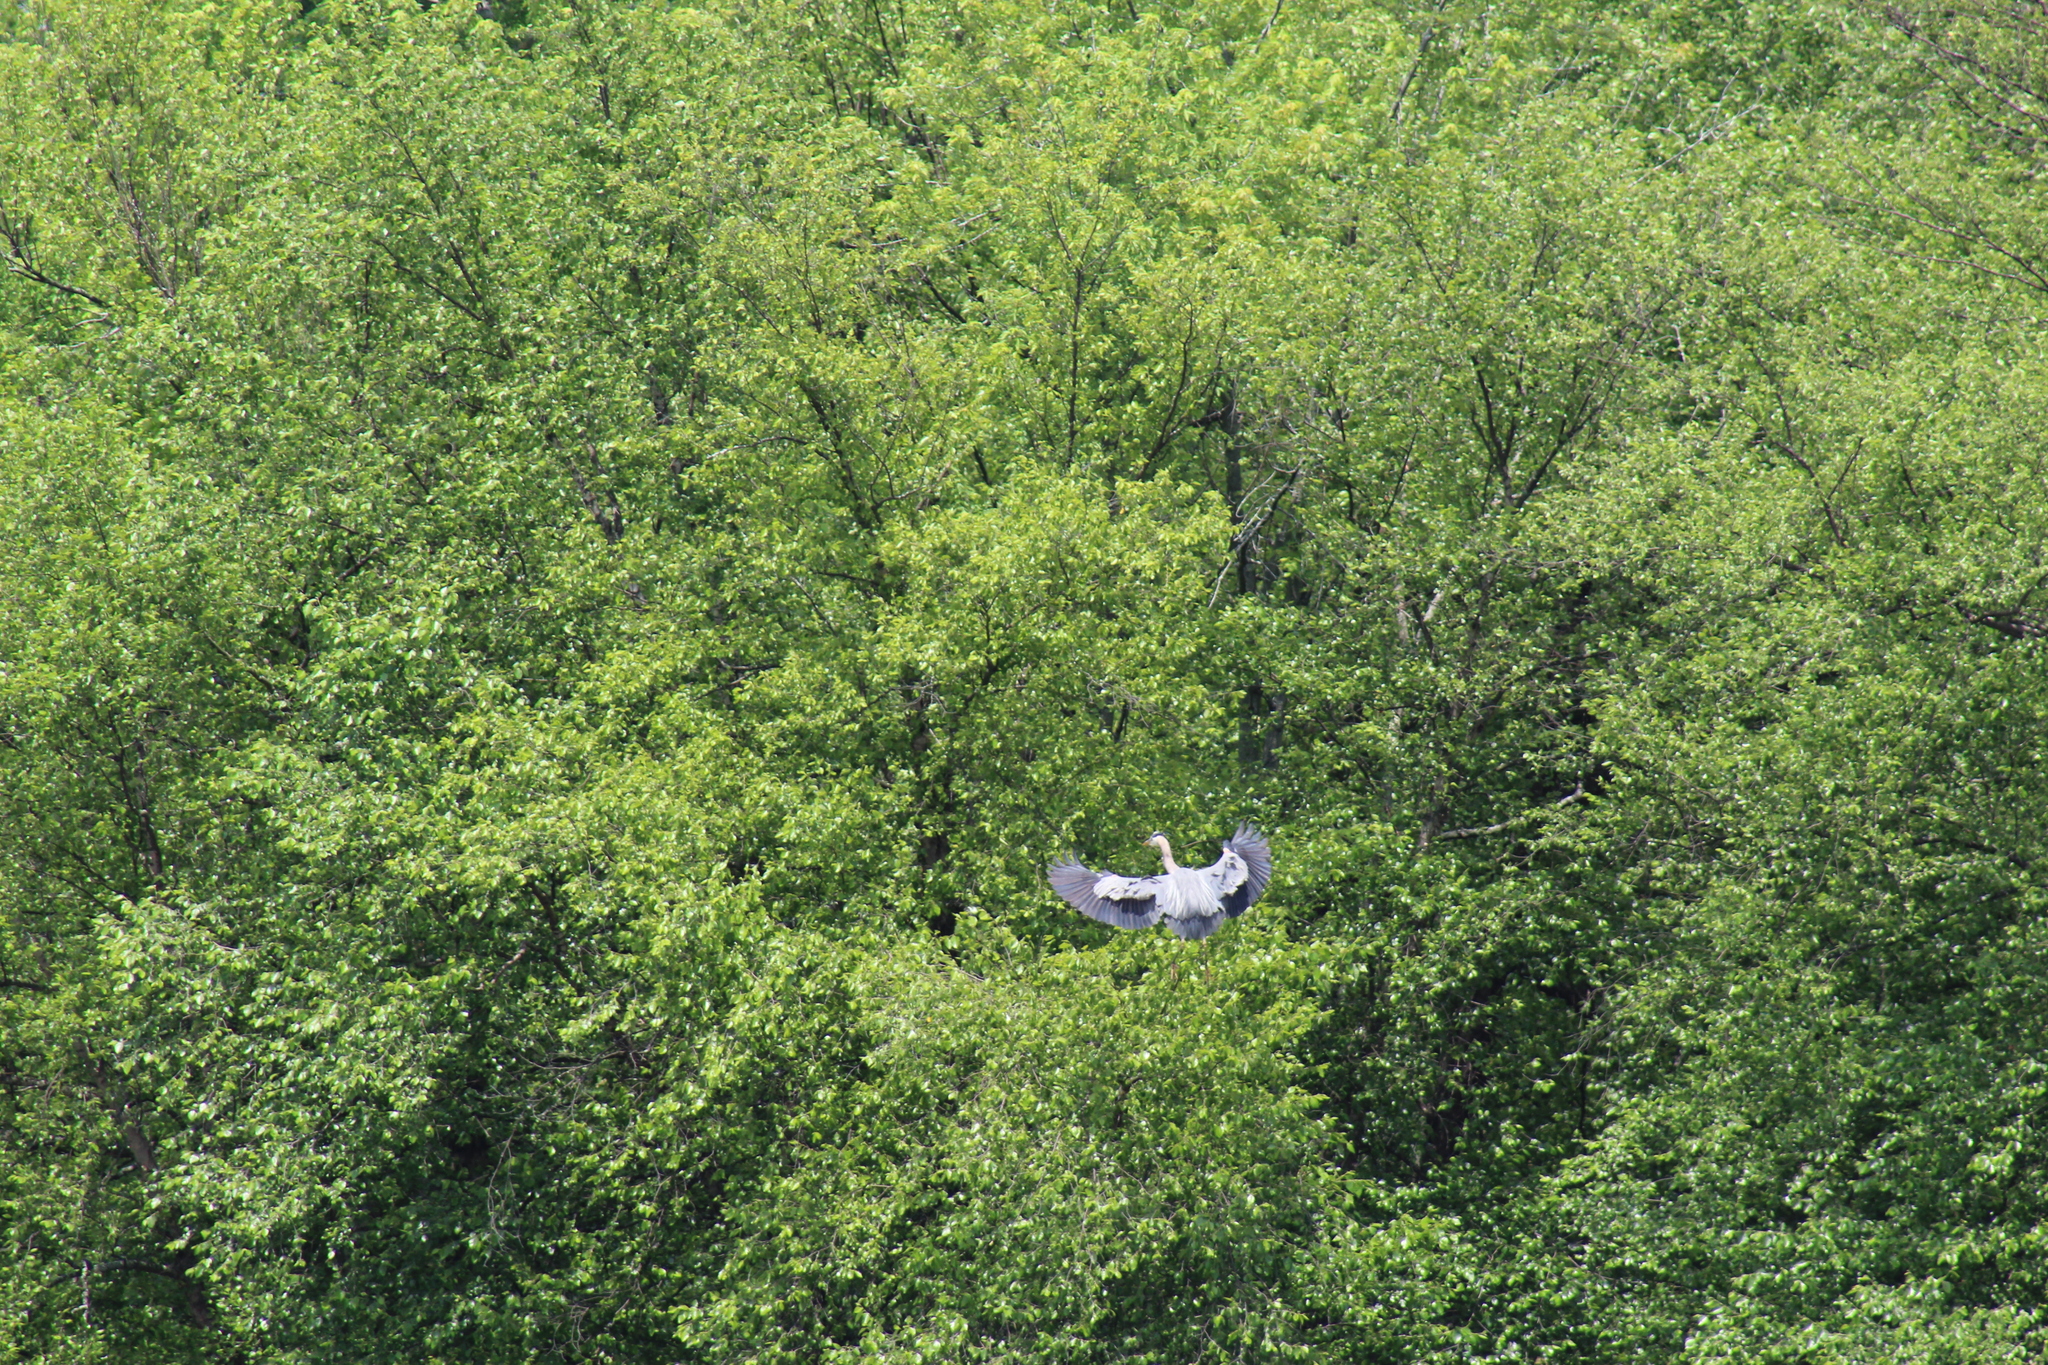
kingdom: Animalia
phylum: Chordata
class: Aves
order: Pelecaniformes
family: Ardeidae
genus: Ardea
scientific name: Ardea herodias
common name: Great blue heron
